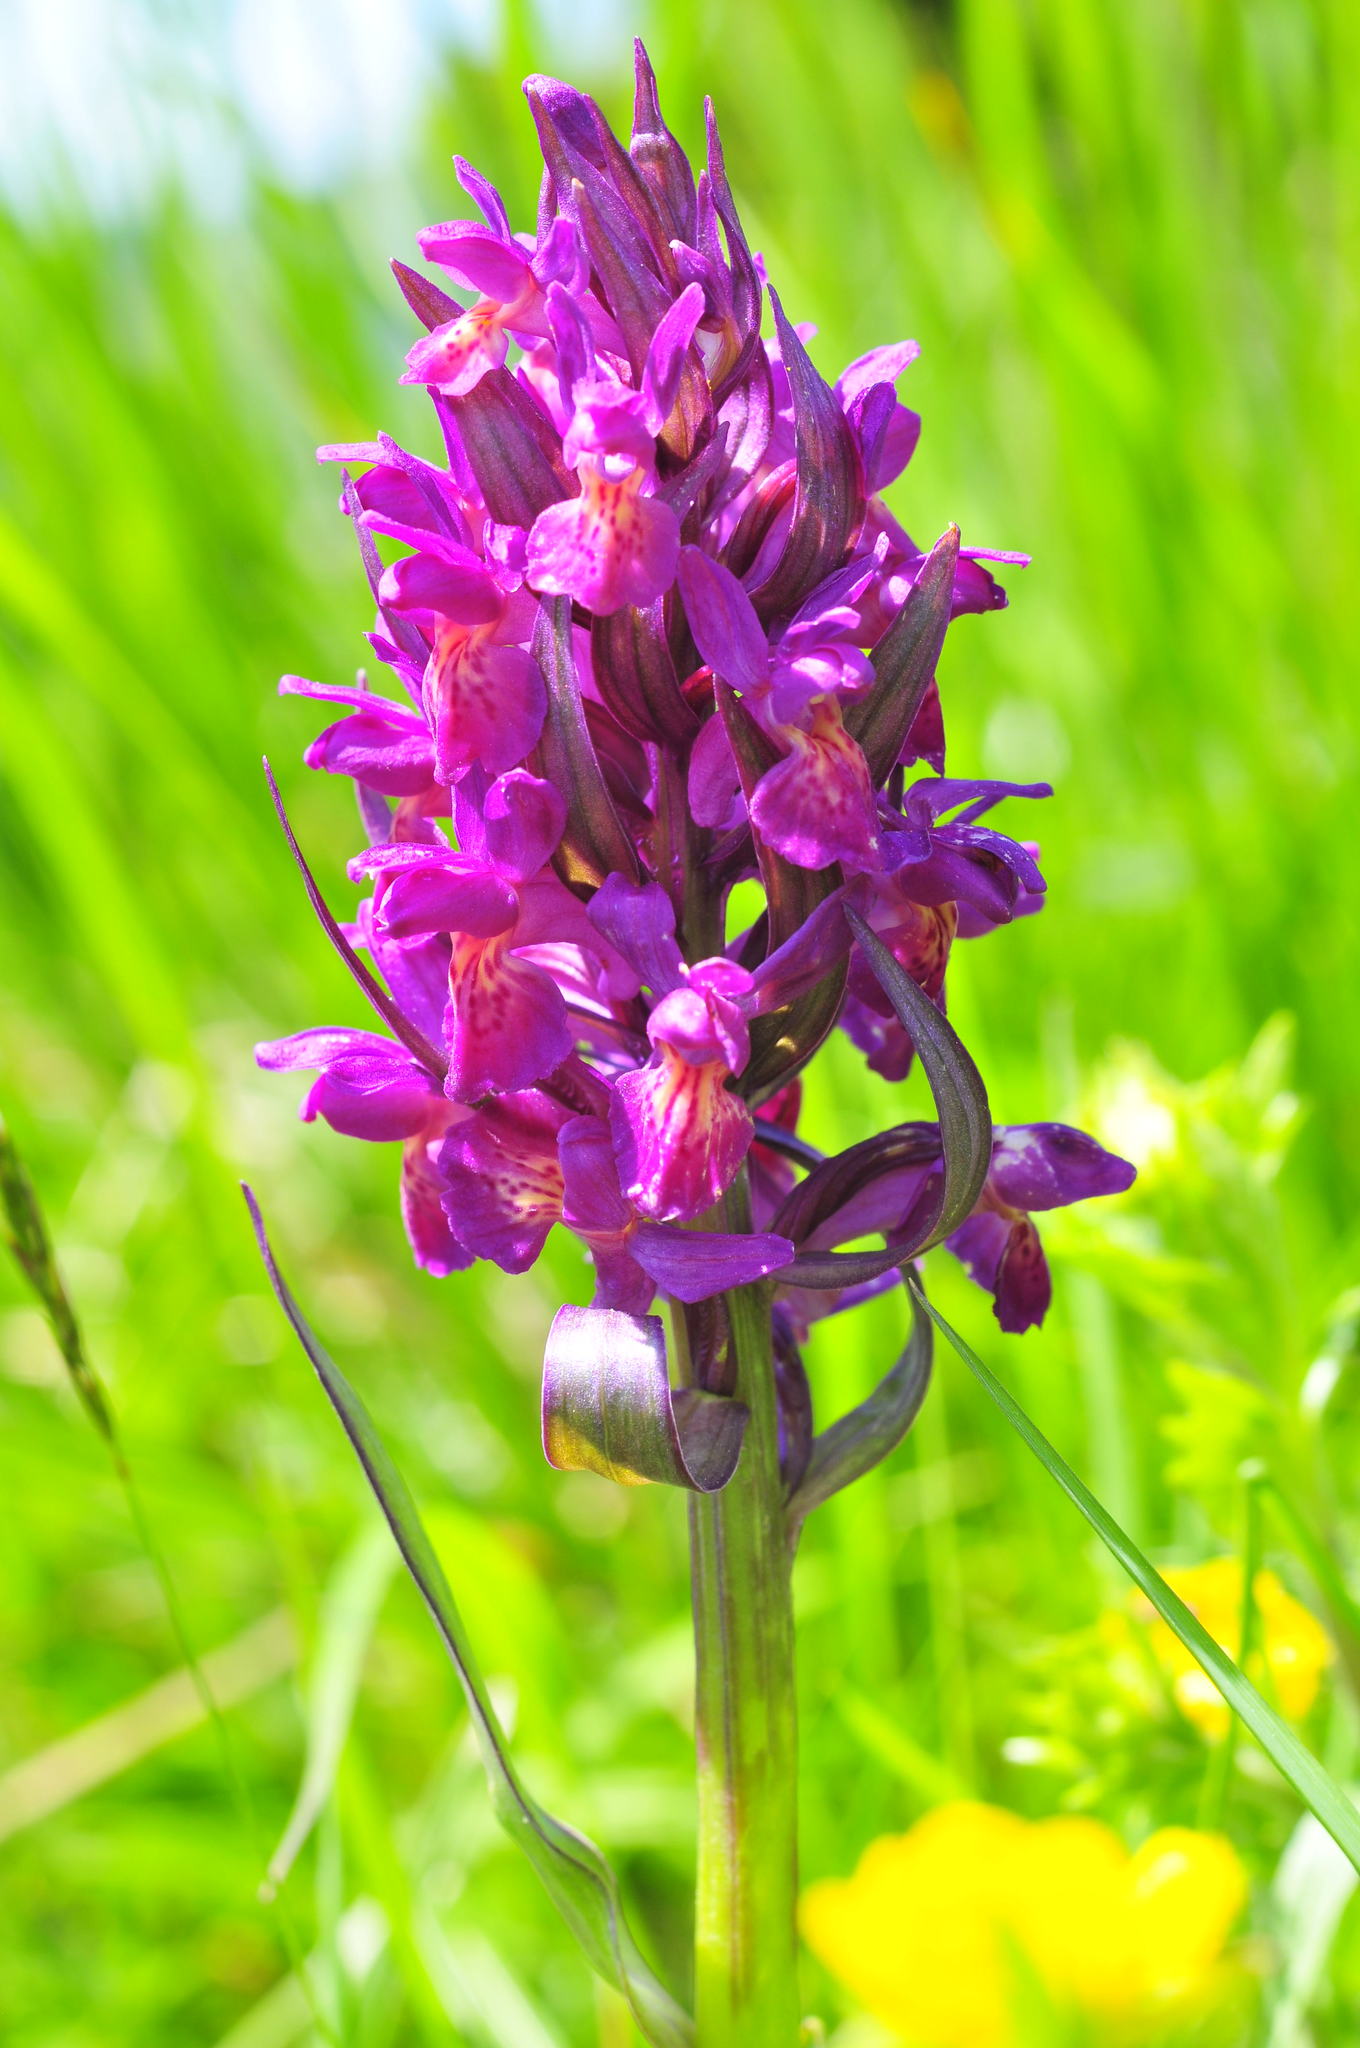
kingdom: Plantae
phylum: Tracheophyta
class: Liliopsida
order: Asparagales
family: Orchidaceae
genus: Dactylorhiza
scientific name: Dactylorhiza sambucina
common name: Elder-flowered orchid
